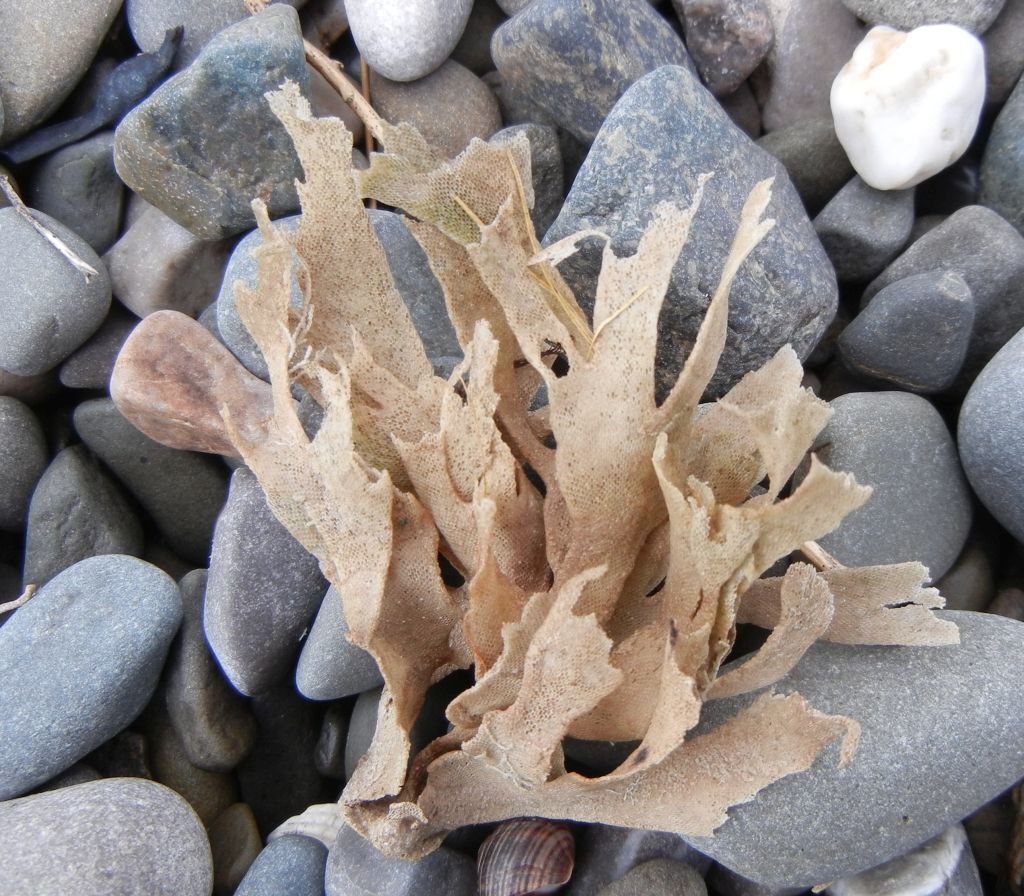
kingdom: Animalia
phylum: Bryozoa
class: Gymnolaemata
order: Cheilostomatida
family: Flustridae
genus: Flustra
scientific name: Flustra foliacea
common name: Hornwrack
